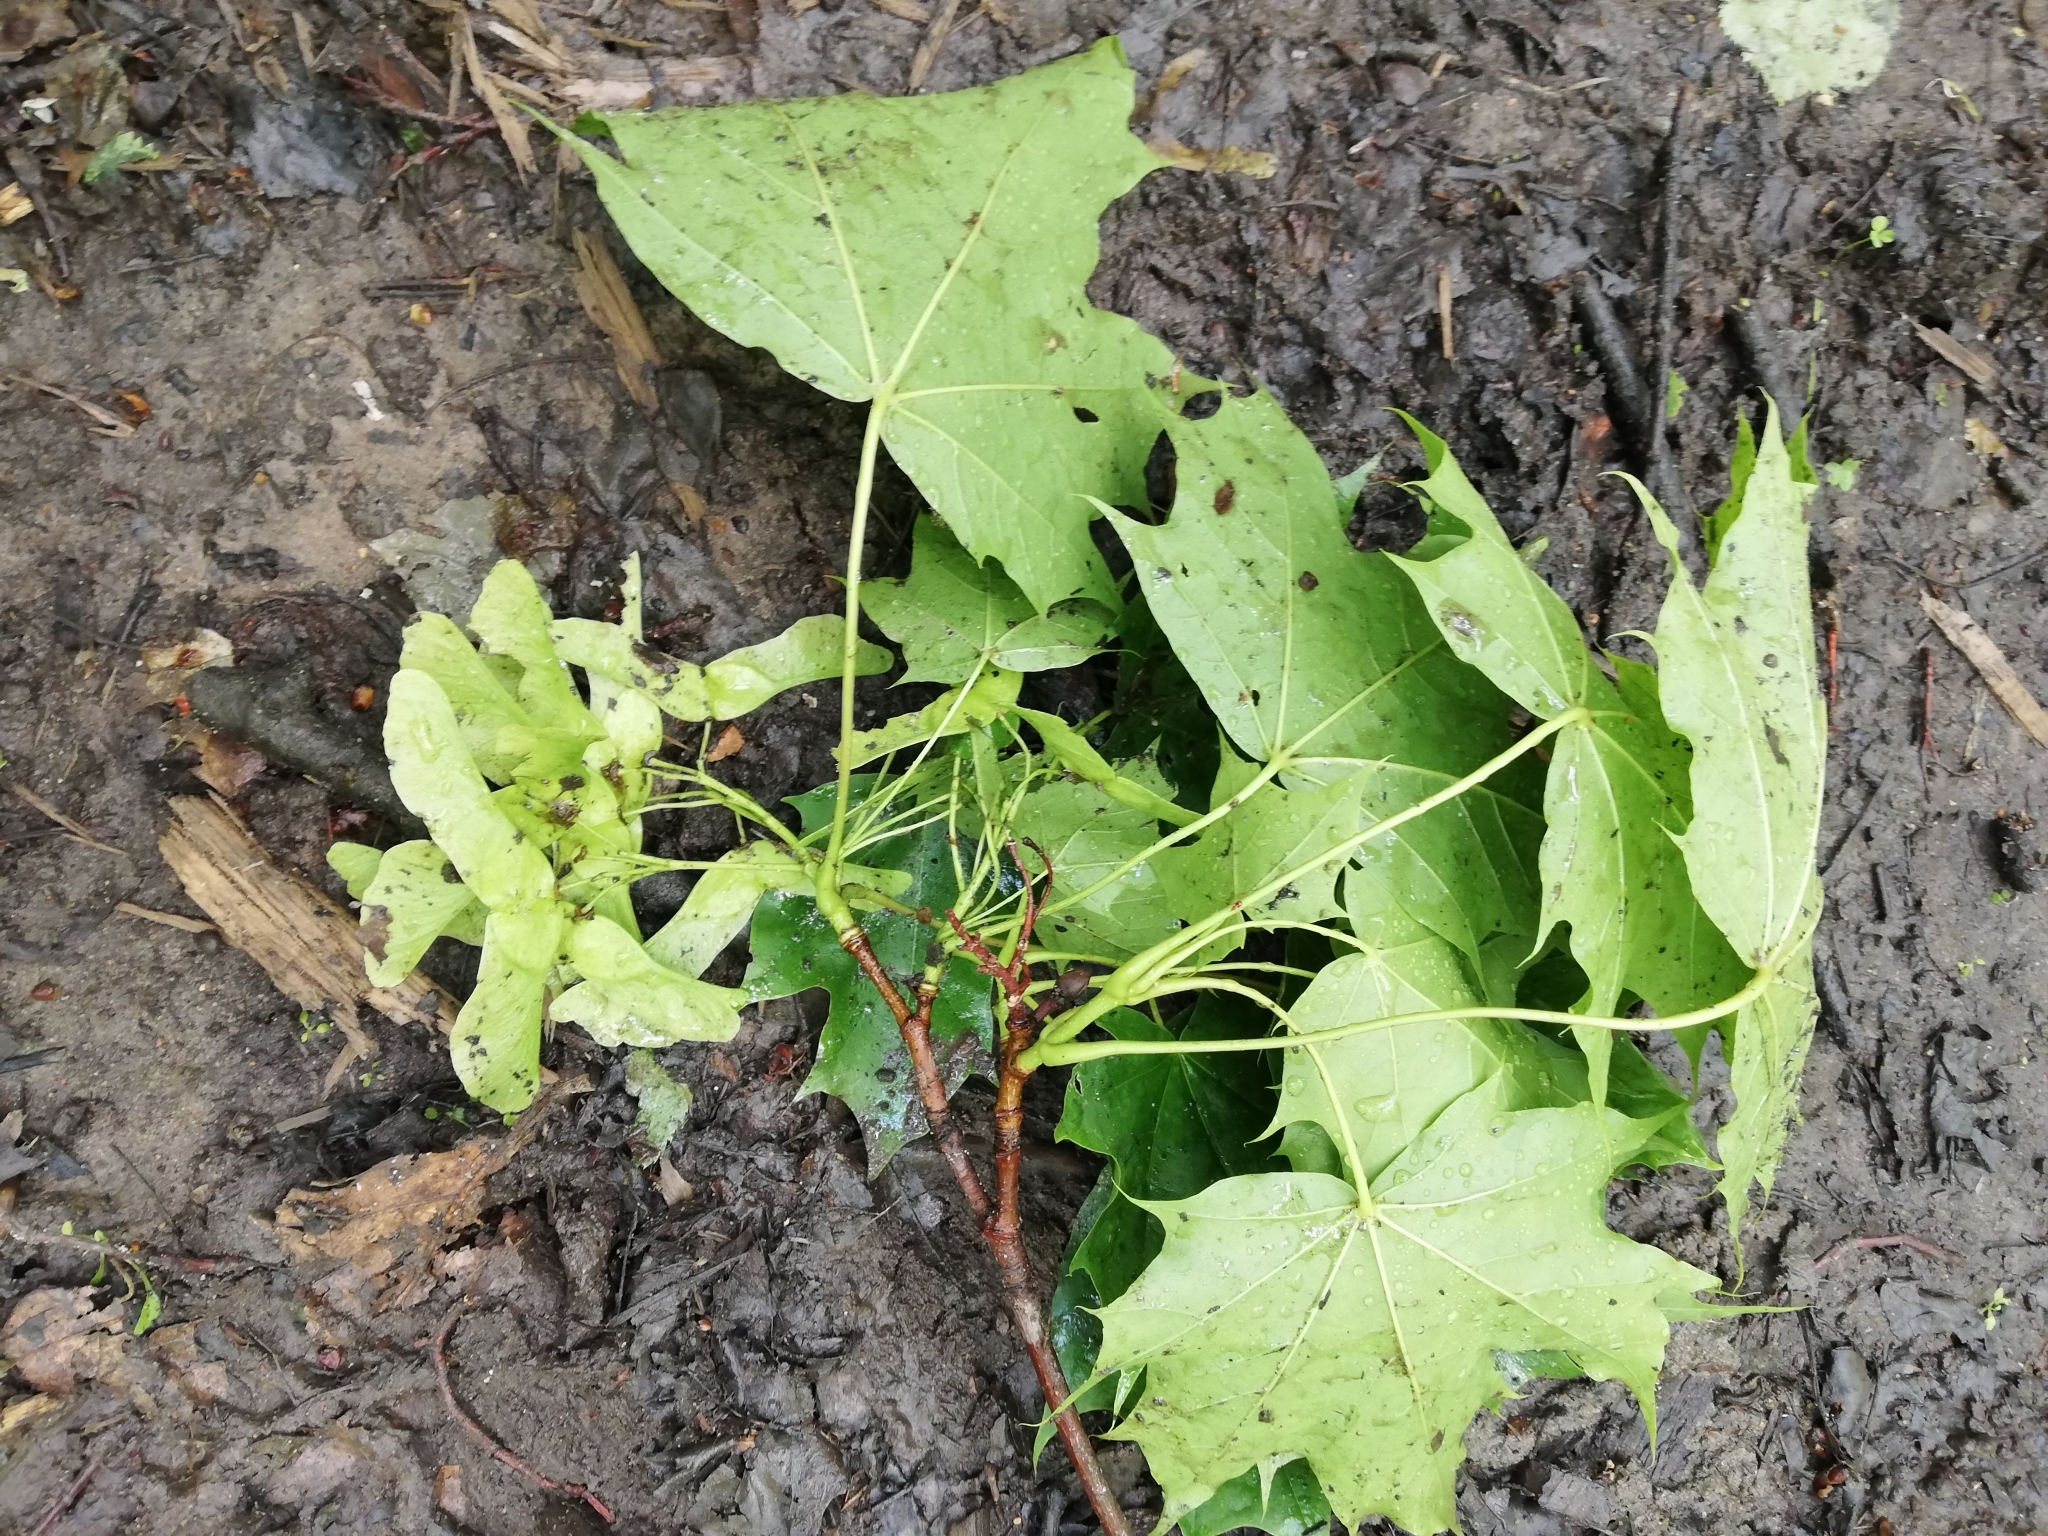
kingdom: Plantae
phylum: Tracheophyta
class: Magnoliopsida
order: Sapindales
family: Sapindaceae
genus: Acer
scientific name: Acer platanoides
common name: Norway maple
